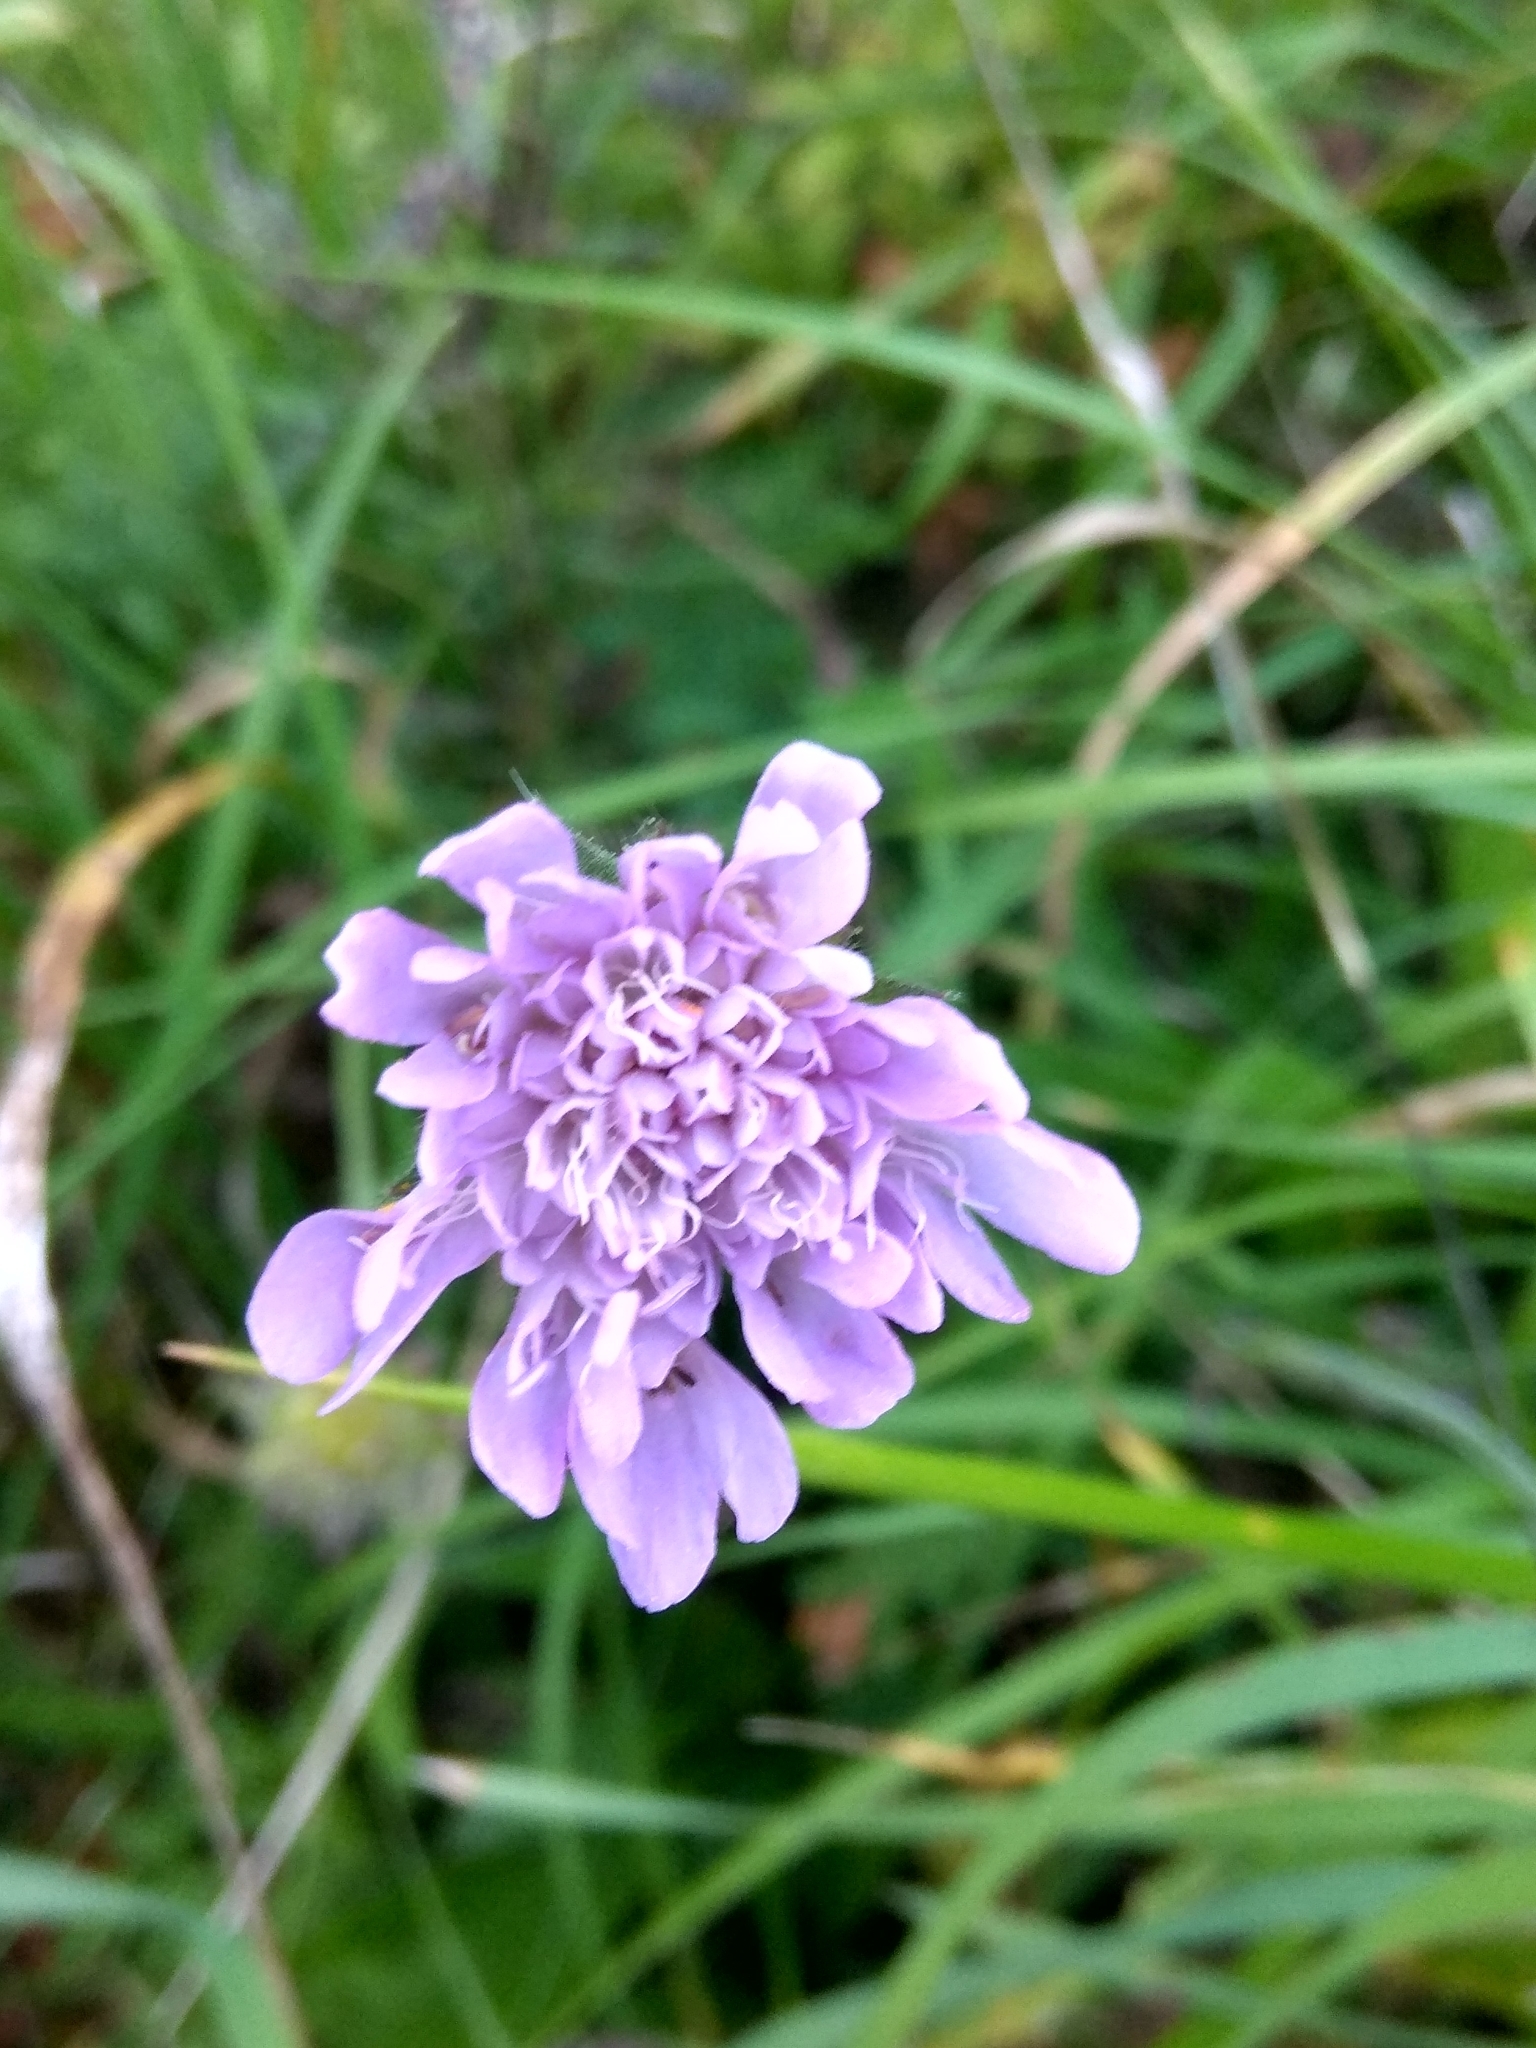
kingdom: Plantae
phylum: Tracheophyta
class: Magnoliopsida
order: Dipsacales
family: Caprifoliaceae
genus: Knautia
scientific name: Knautia arvensis
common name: Field scabiosa
